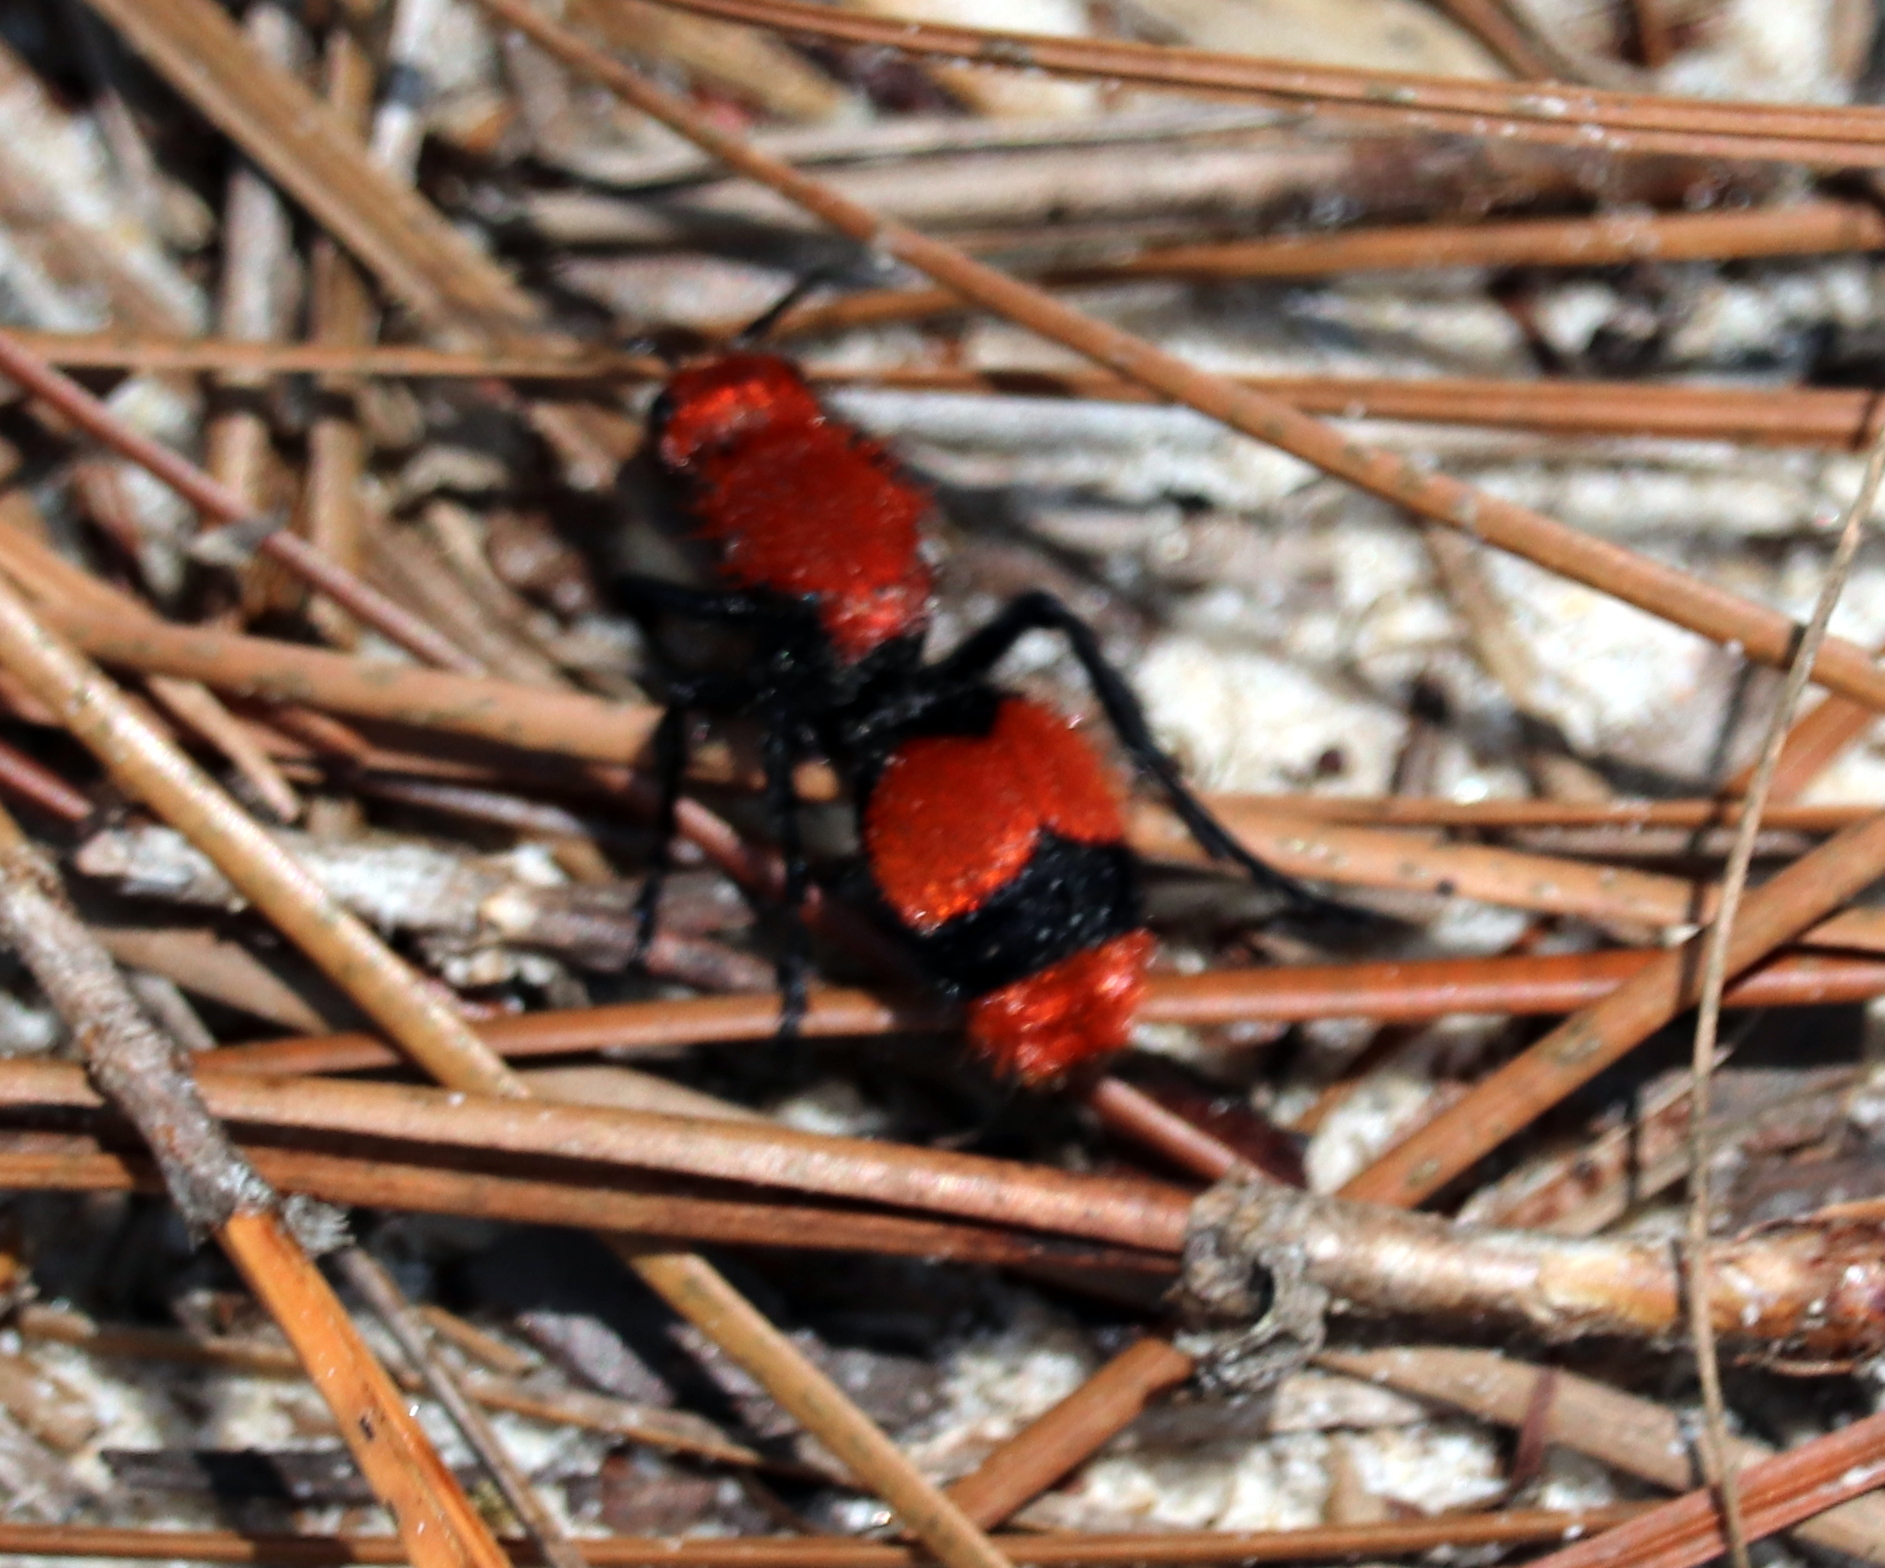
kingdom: Animalia
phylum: Arthropoda
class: Insecta
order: Hymenoptera
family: Mutillidae
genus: Dasymutilla
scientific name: Dasymutilla occidentalis
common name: Common eastern velvet ant
